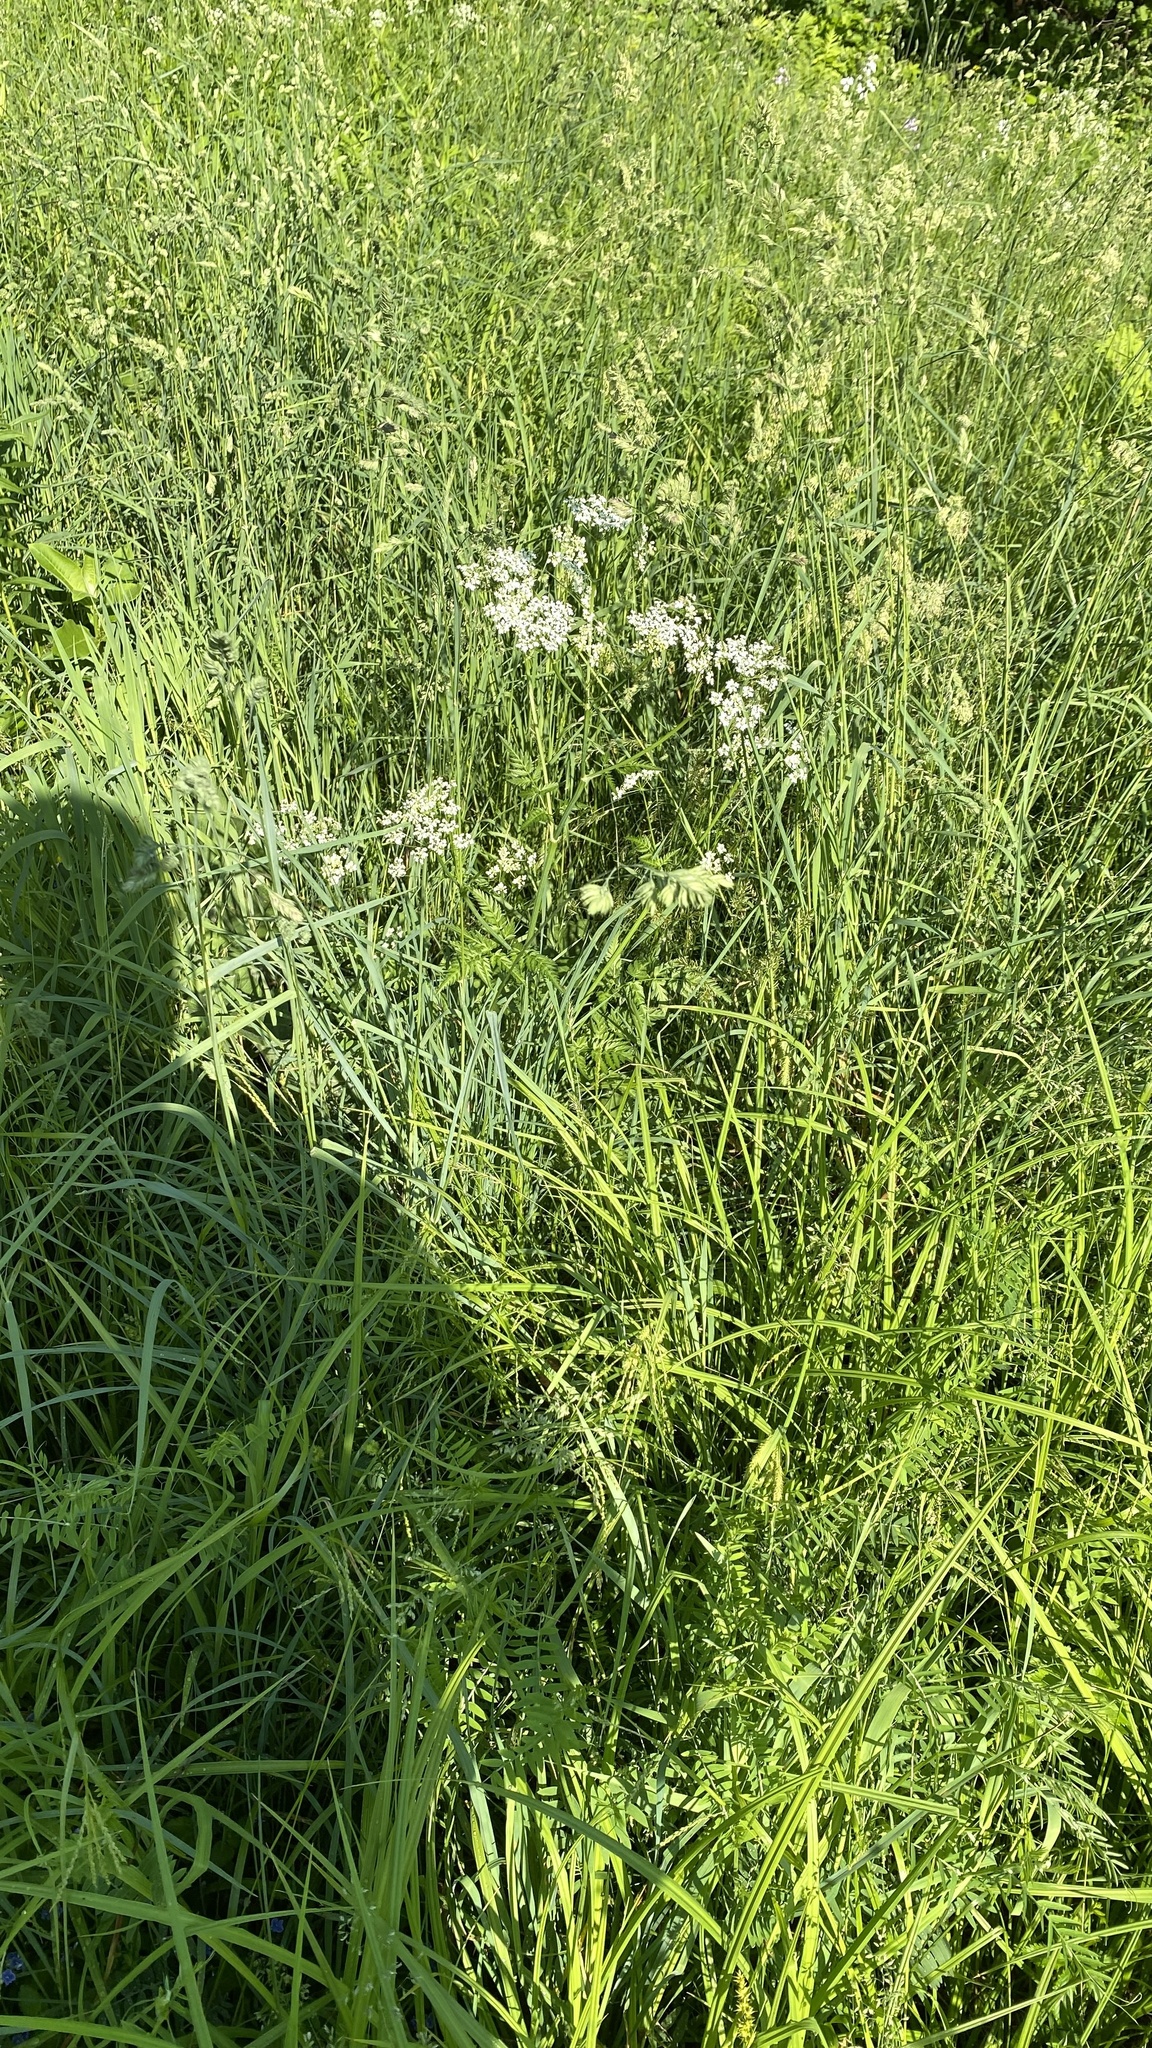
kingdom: Plantae
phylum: Tracheophyta
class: Magnoliopsida
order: Apiales
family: Apiaceae
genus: Anthriscus
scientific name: Anthriscus sylvestris
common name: Cow parsley
